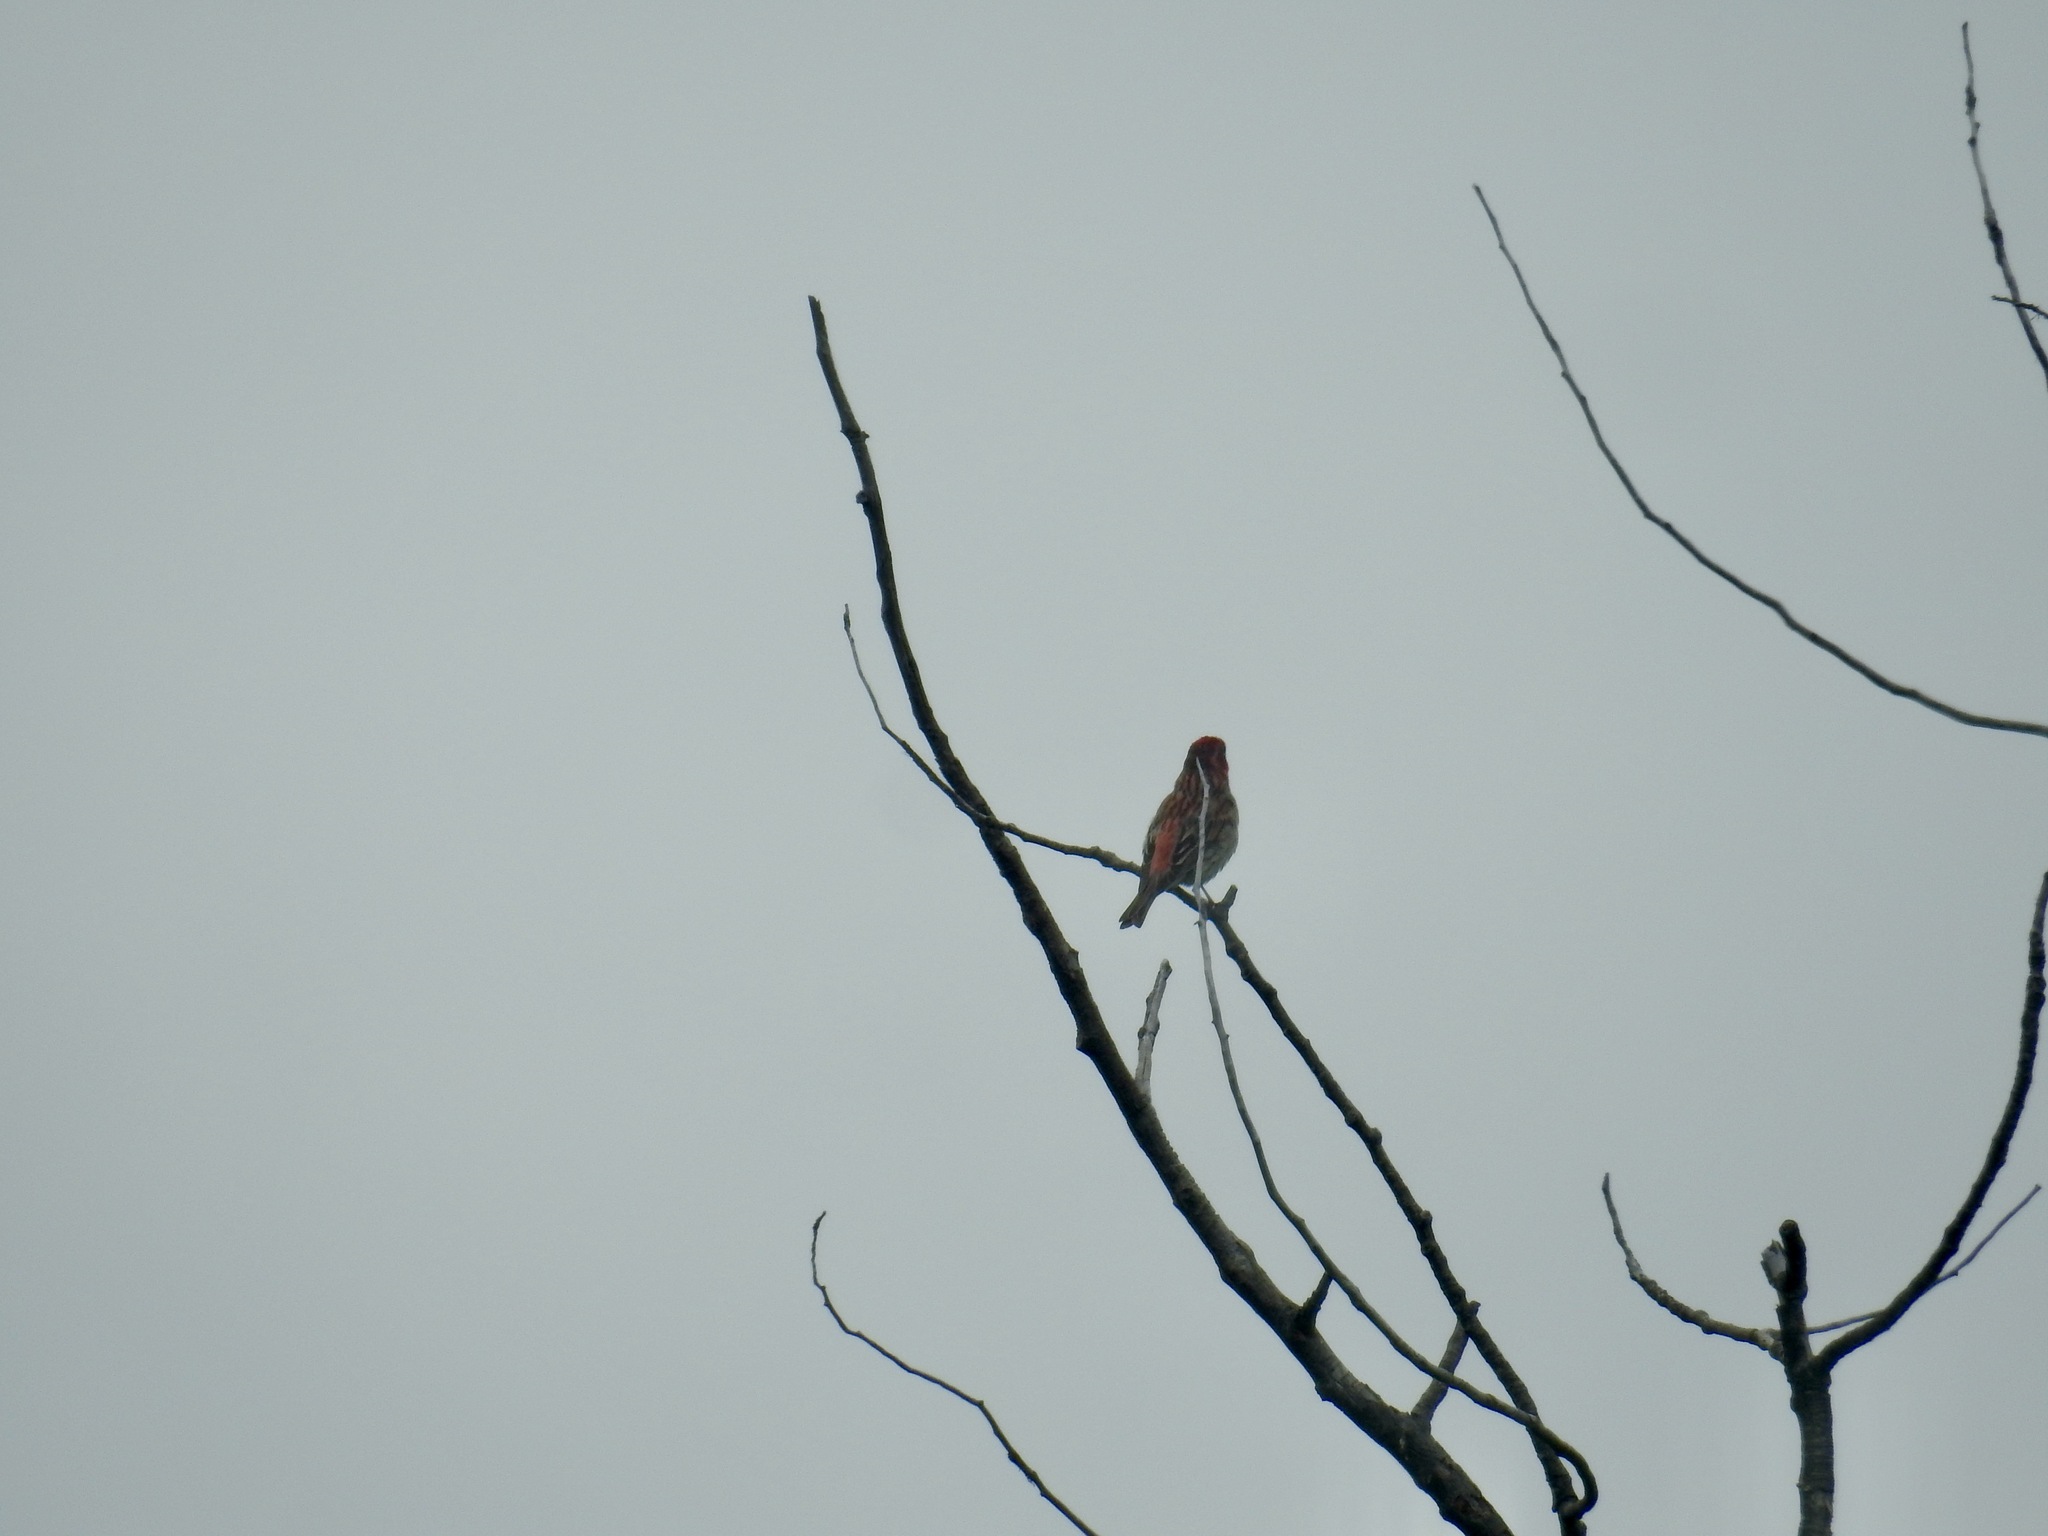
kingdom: Animalia
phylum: Chordata
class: Aves
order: Passeriformes
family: Fringillidae
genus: Haemorhous
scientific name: Haemorhous cassinii
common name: Cassin's finch
